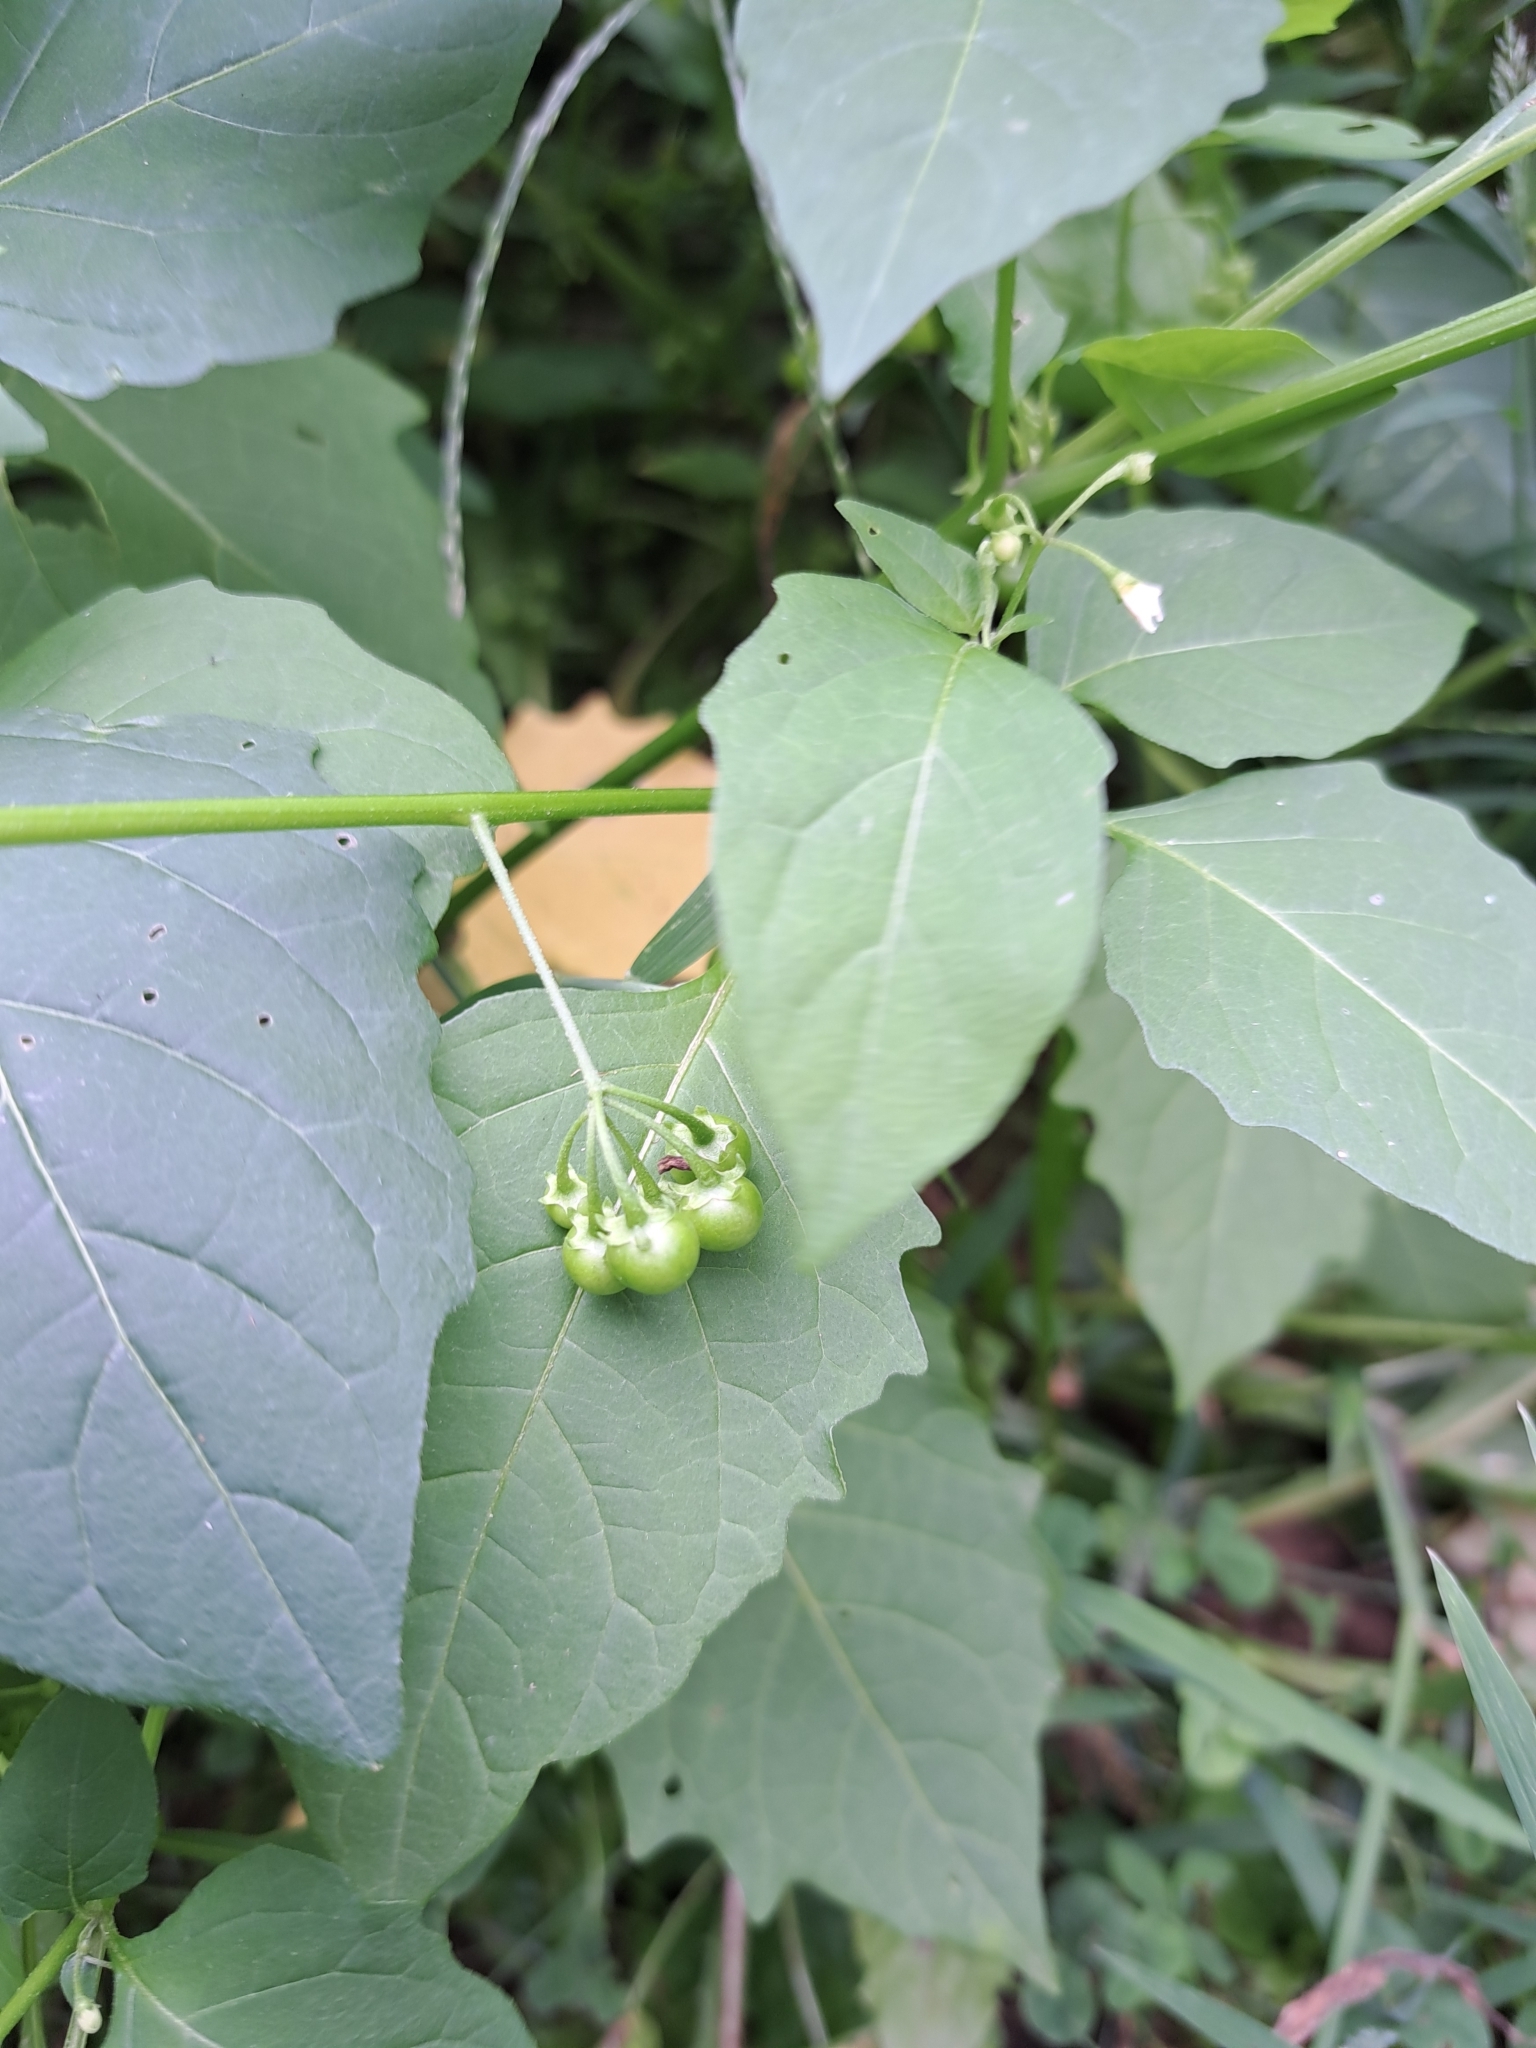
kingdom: Plantae
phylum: Tracheophyta
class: Magnoliopsida
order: Solanales
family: Solanaceae
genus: Solanum
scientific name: Solanum emulans
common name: Eastern black nightshade
